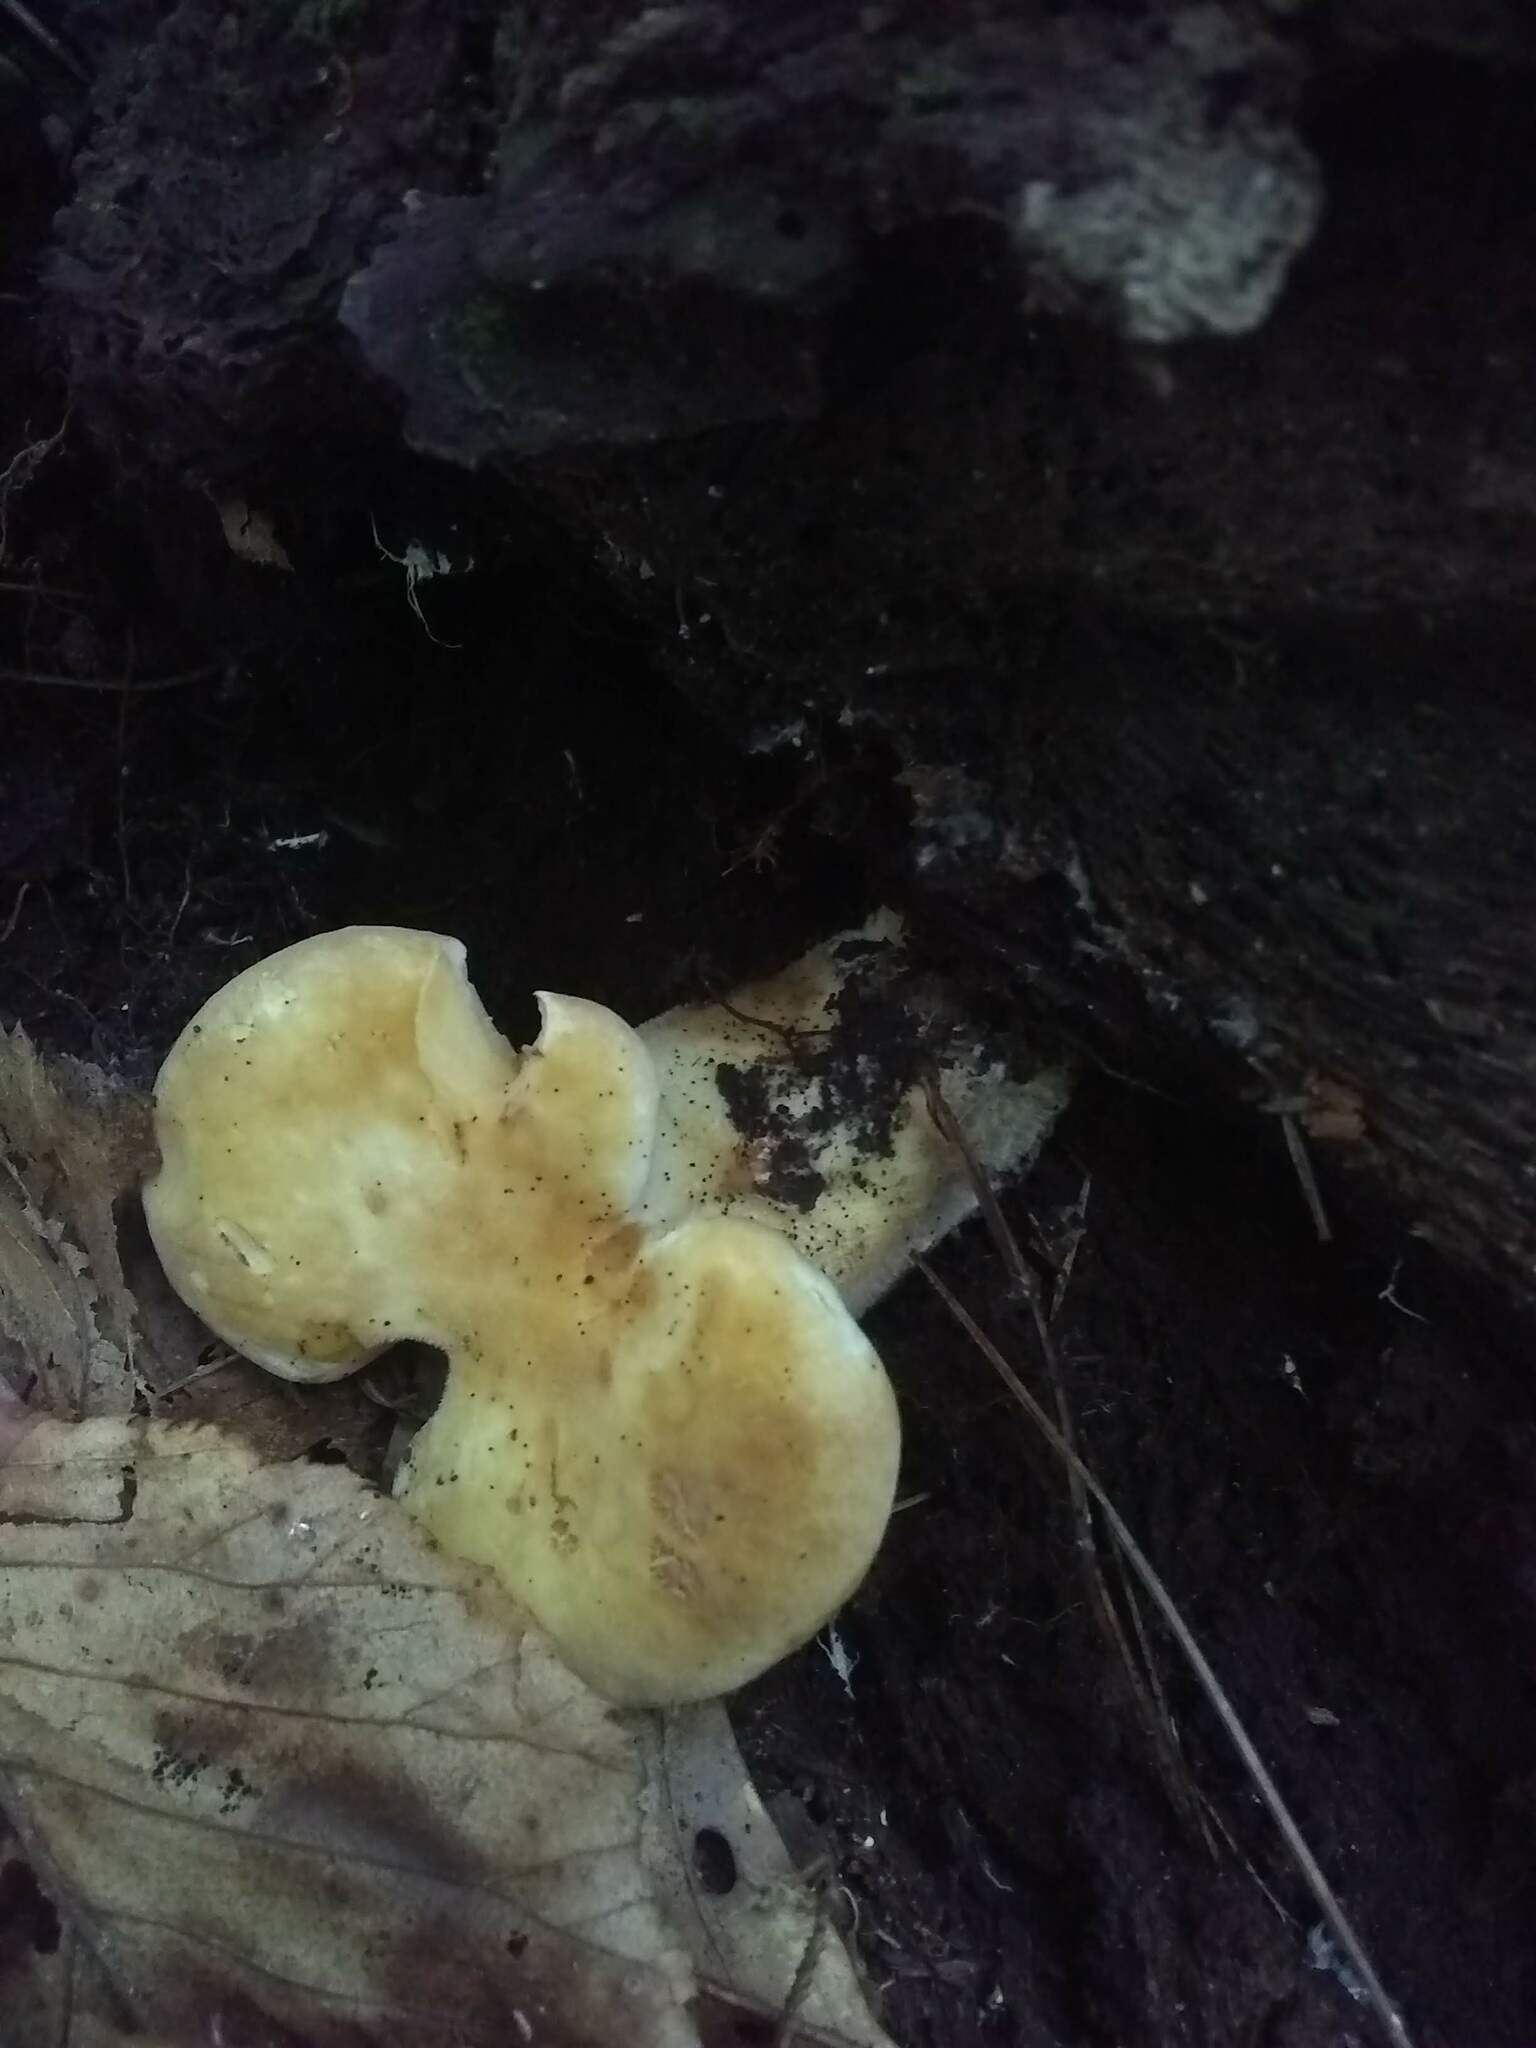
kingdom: Fungi
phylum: Basidiomycota
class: Agaricomycetes
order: Boletales
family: Tapinellaceae
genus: Tapinella
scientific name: Tapinella atrotomentosa
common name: Velvet rollrim
